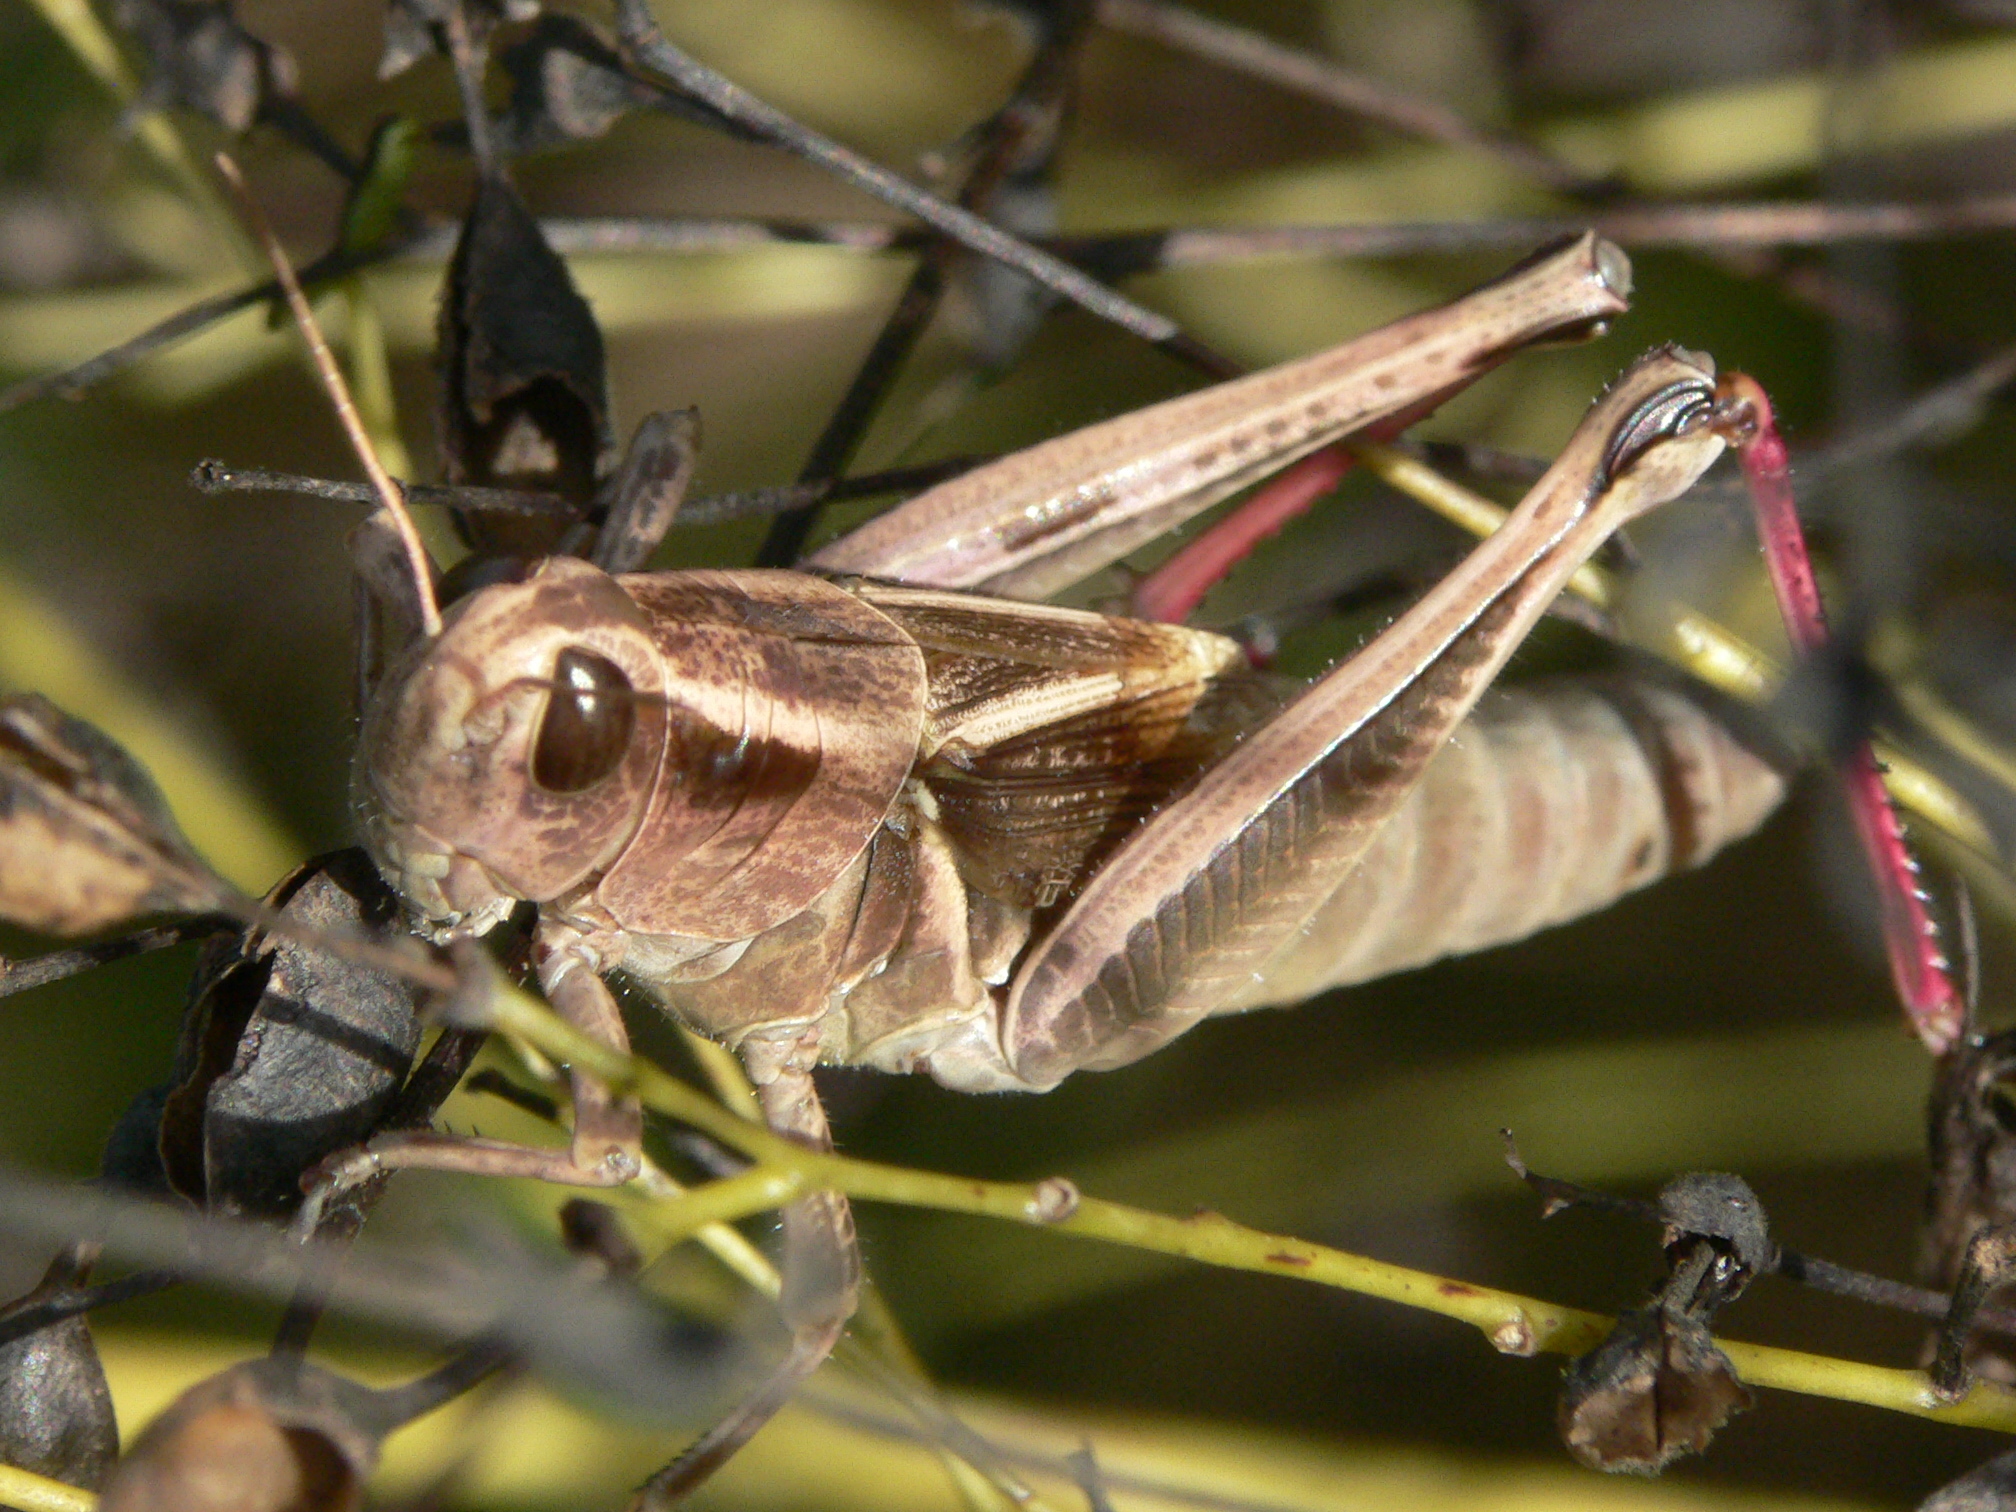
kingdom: Animalia
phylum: Arthropoda
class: Insecta
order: Orthoptera
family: Acrididae
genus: Melanoplus
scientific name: Melanoplus bivittatus
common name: Two-striped grasshopper
